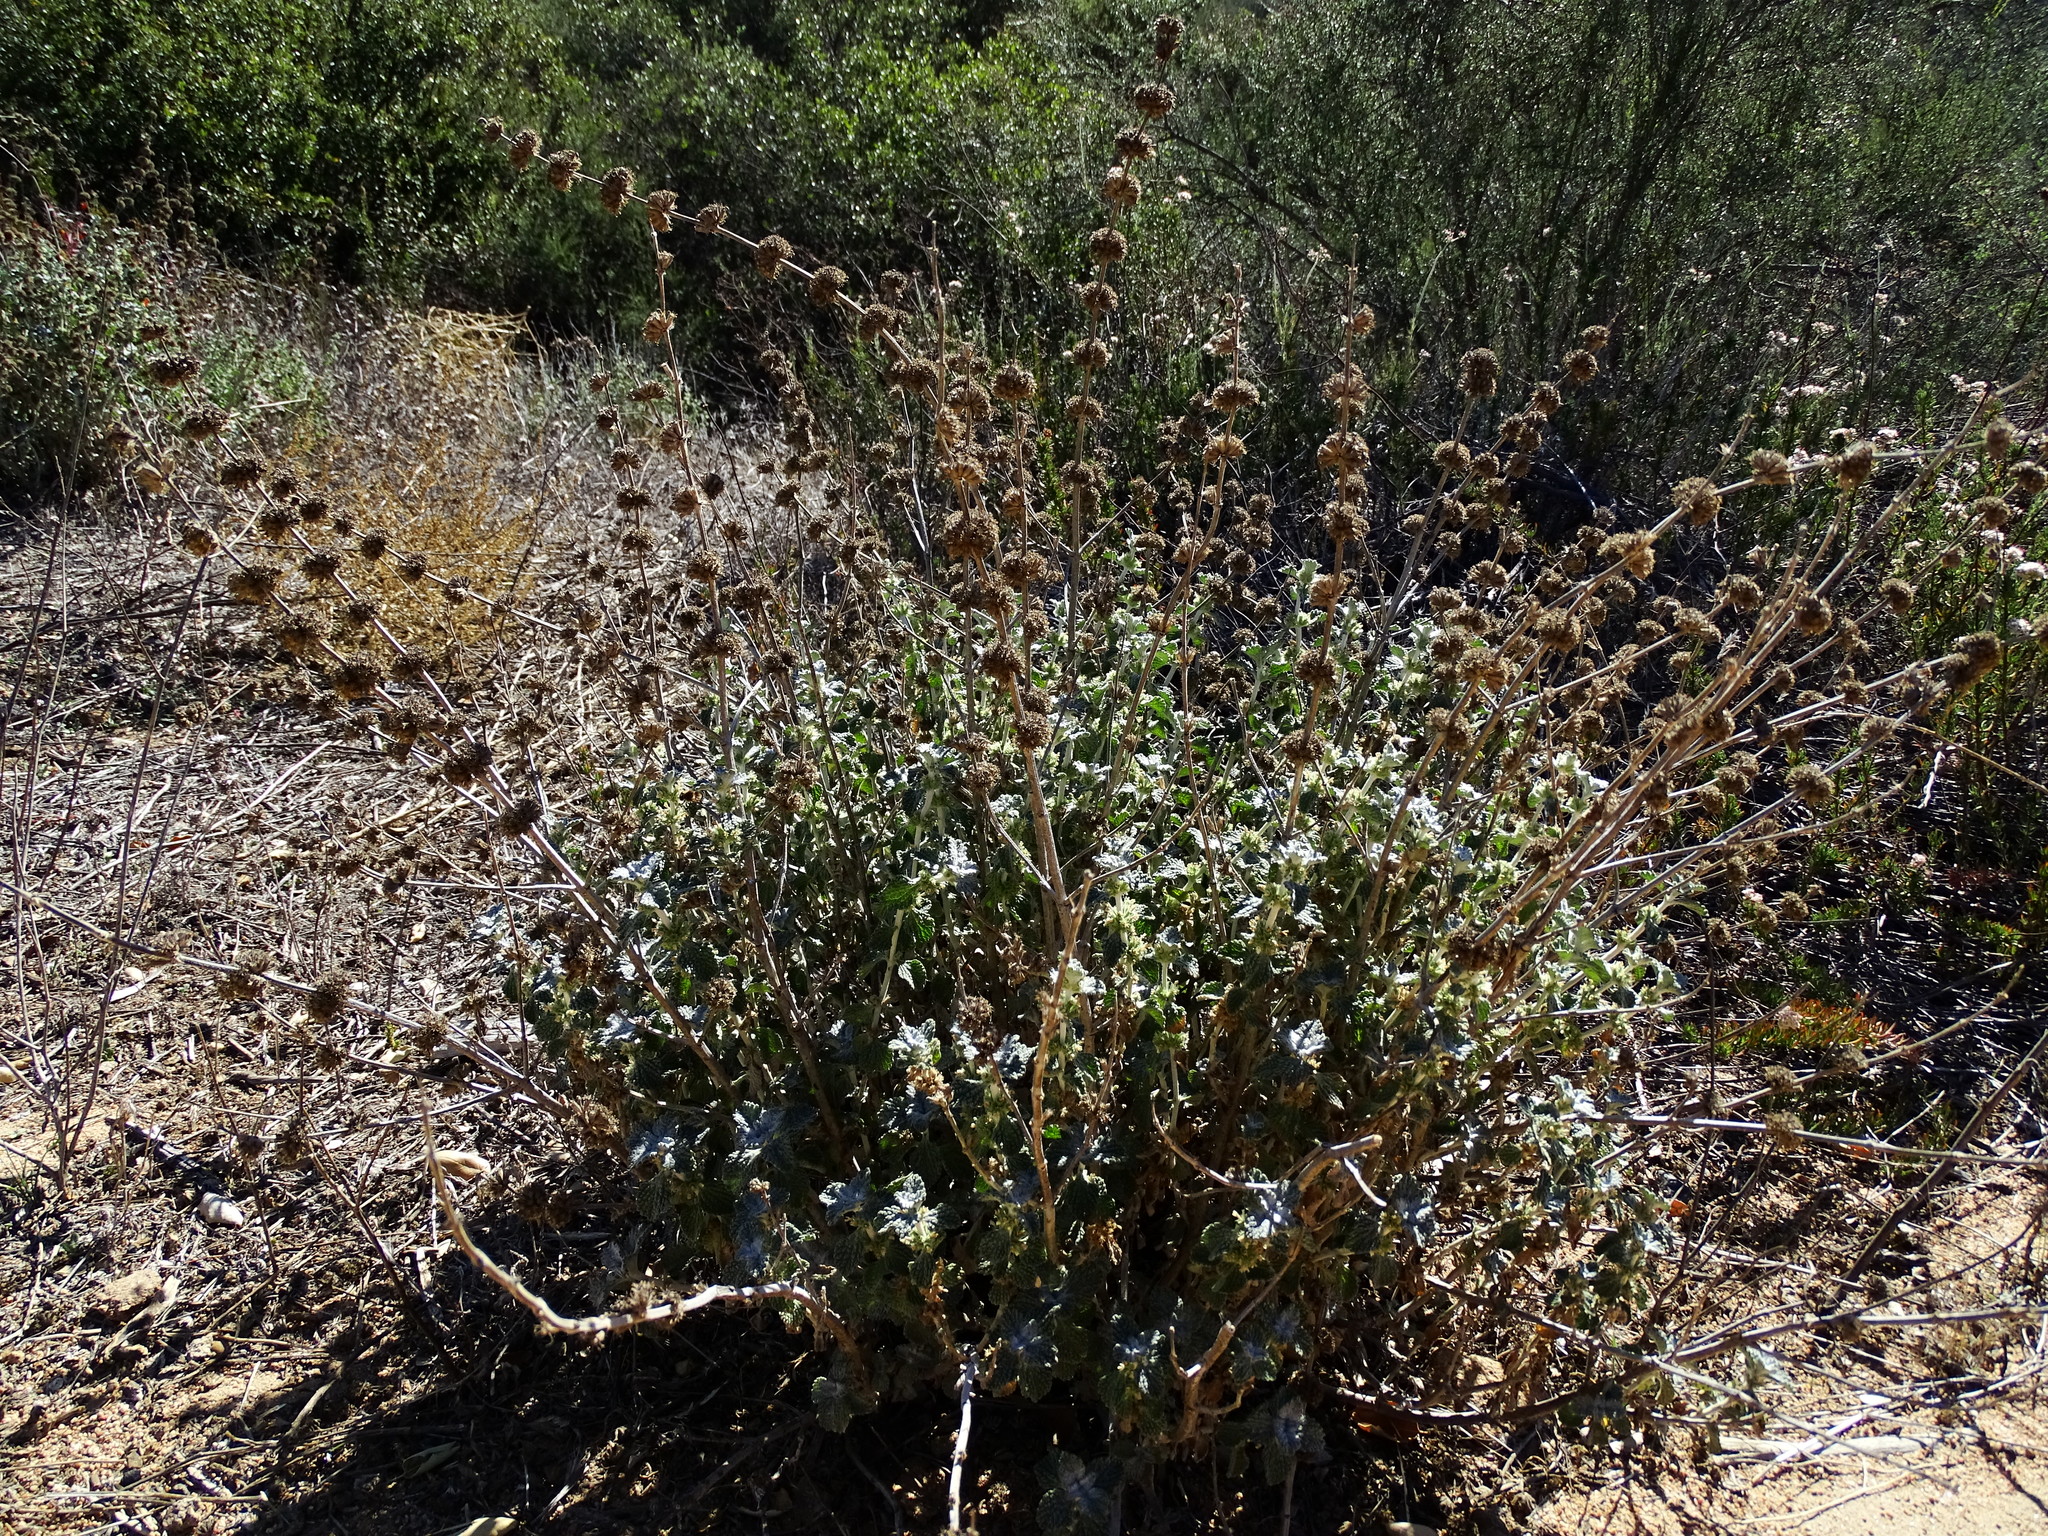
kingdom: Plantae
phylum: Tracheophyta
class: Magnoliopsida
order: Lamiales
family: Lamiaceae
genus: Marrubium
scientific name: Marrubium vulgare
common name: Horehound
